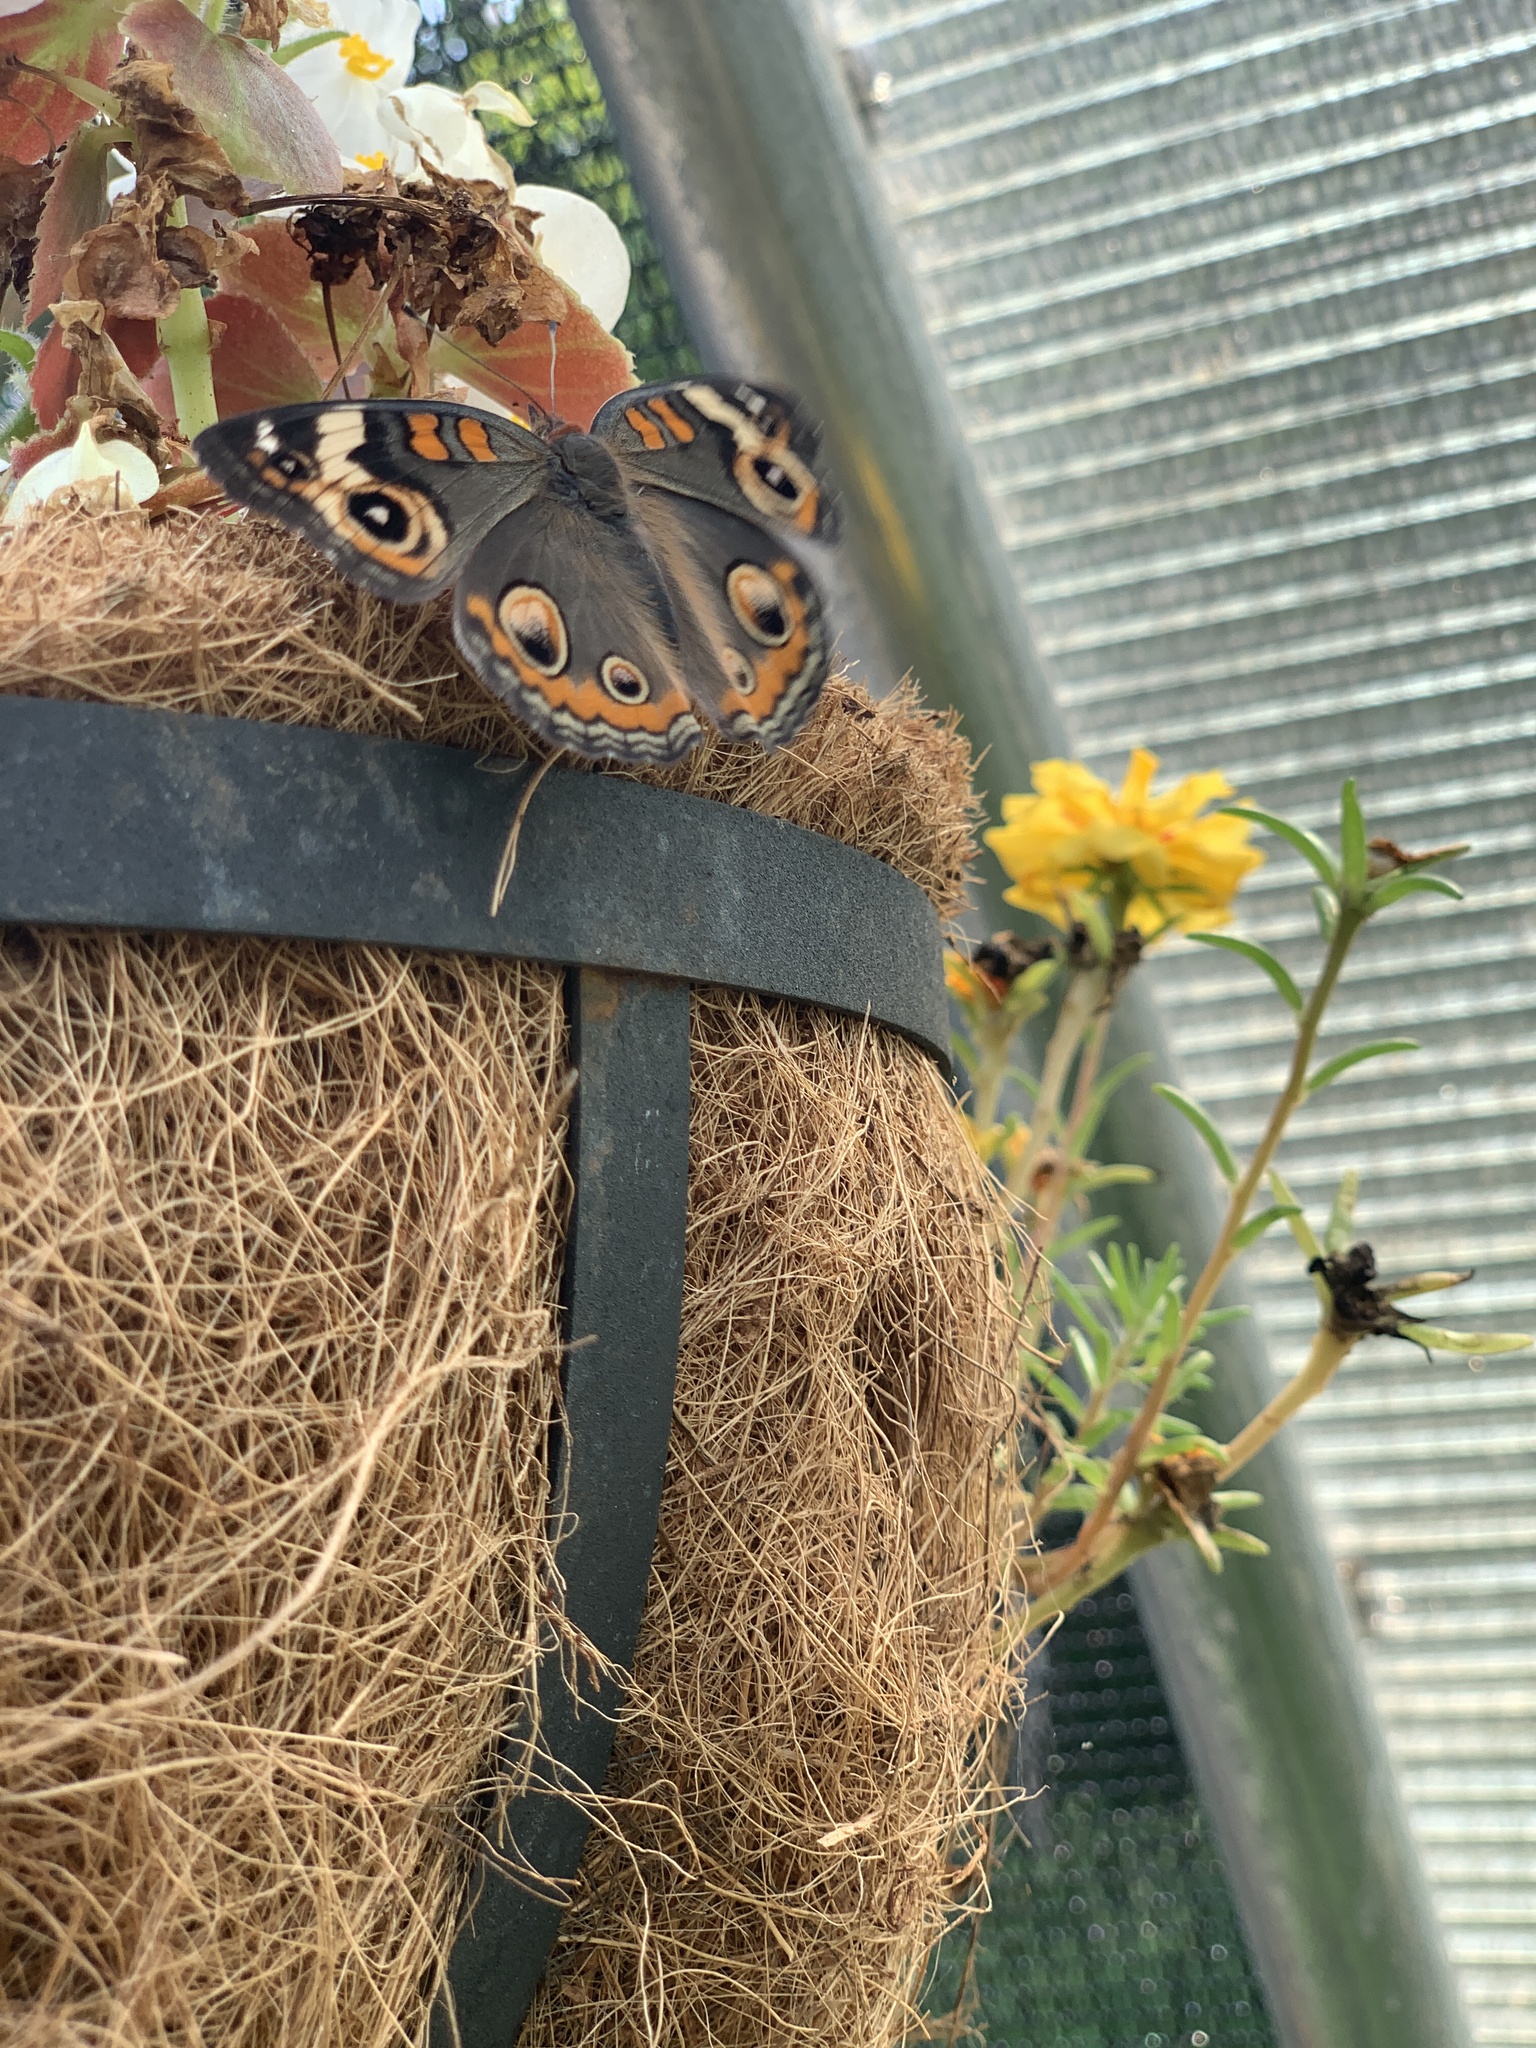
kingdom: Animalia
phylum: Arthropoda
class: Insecta
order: Lepidoptera
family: Nymphalidae
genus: Junonia
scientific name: Junonia coenia
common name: Common buckeye
